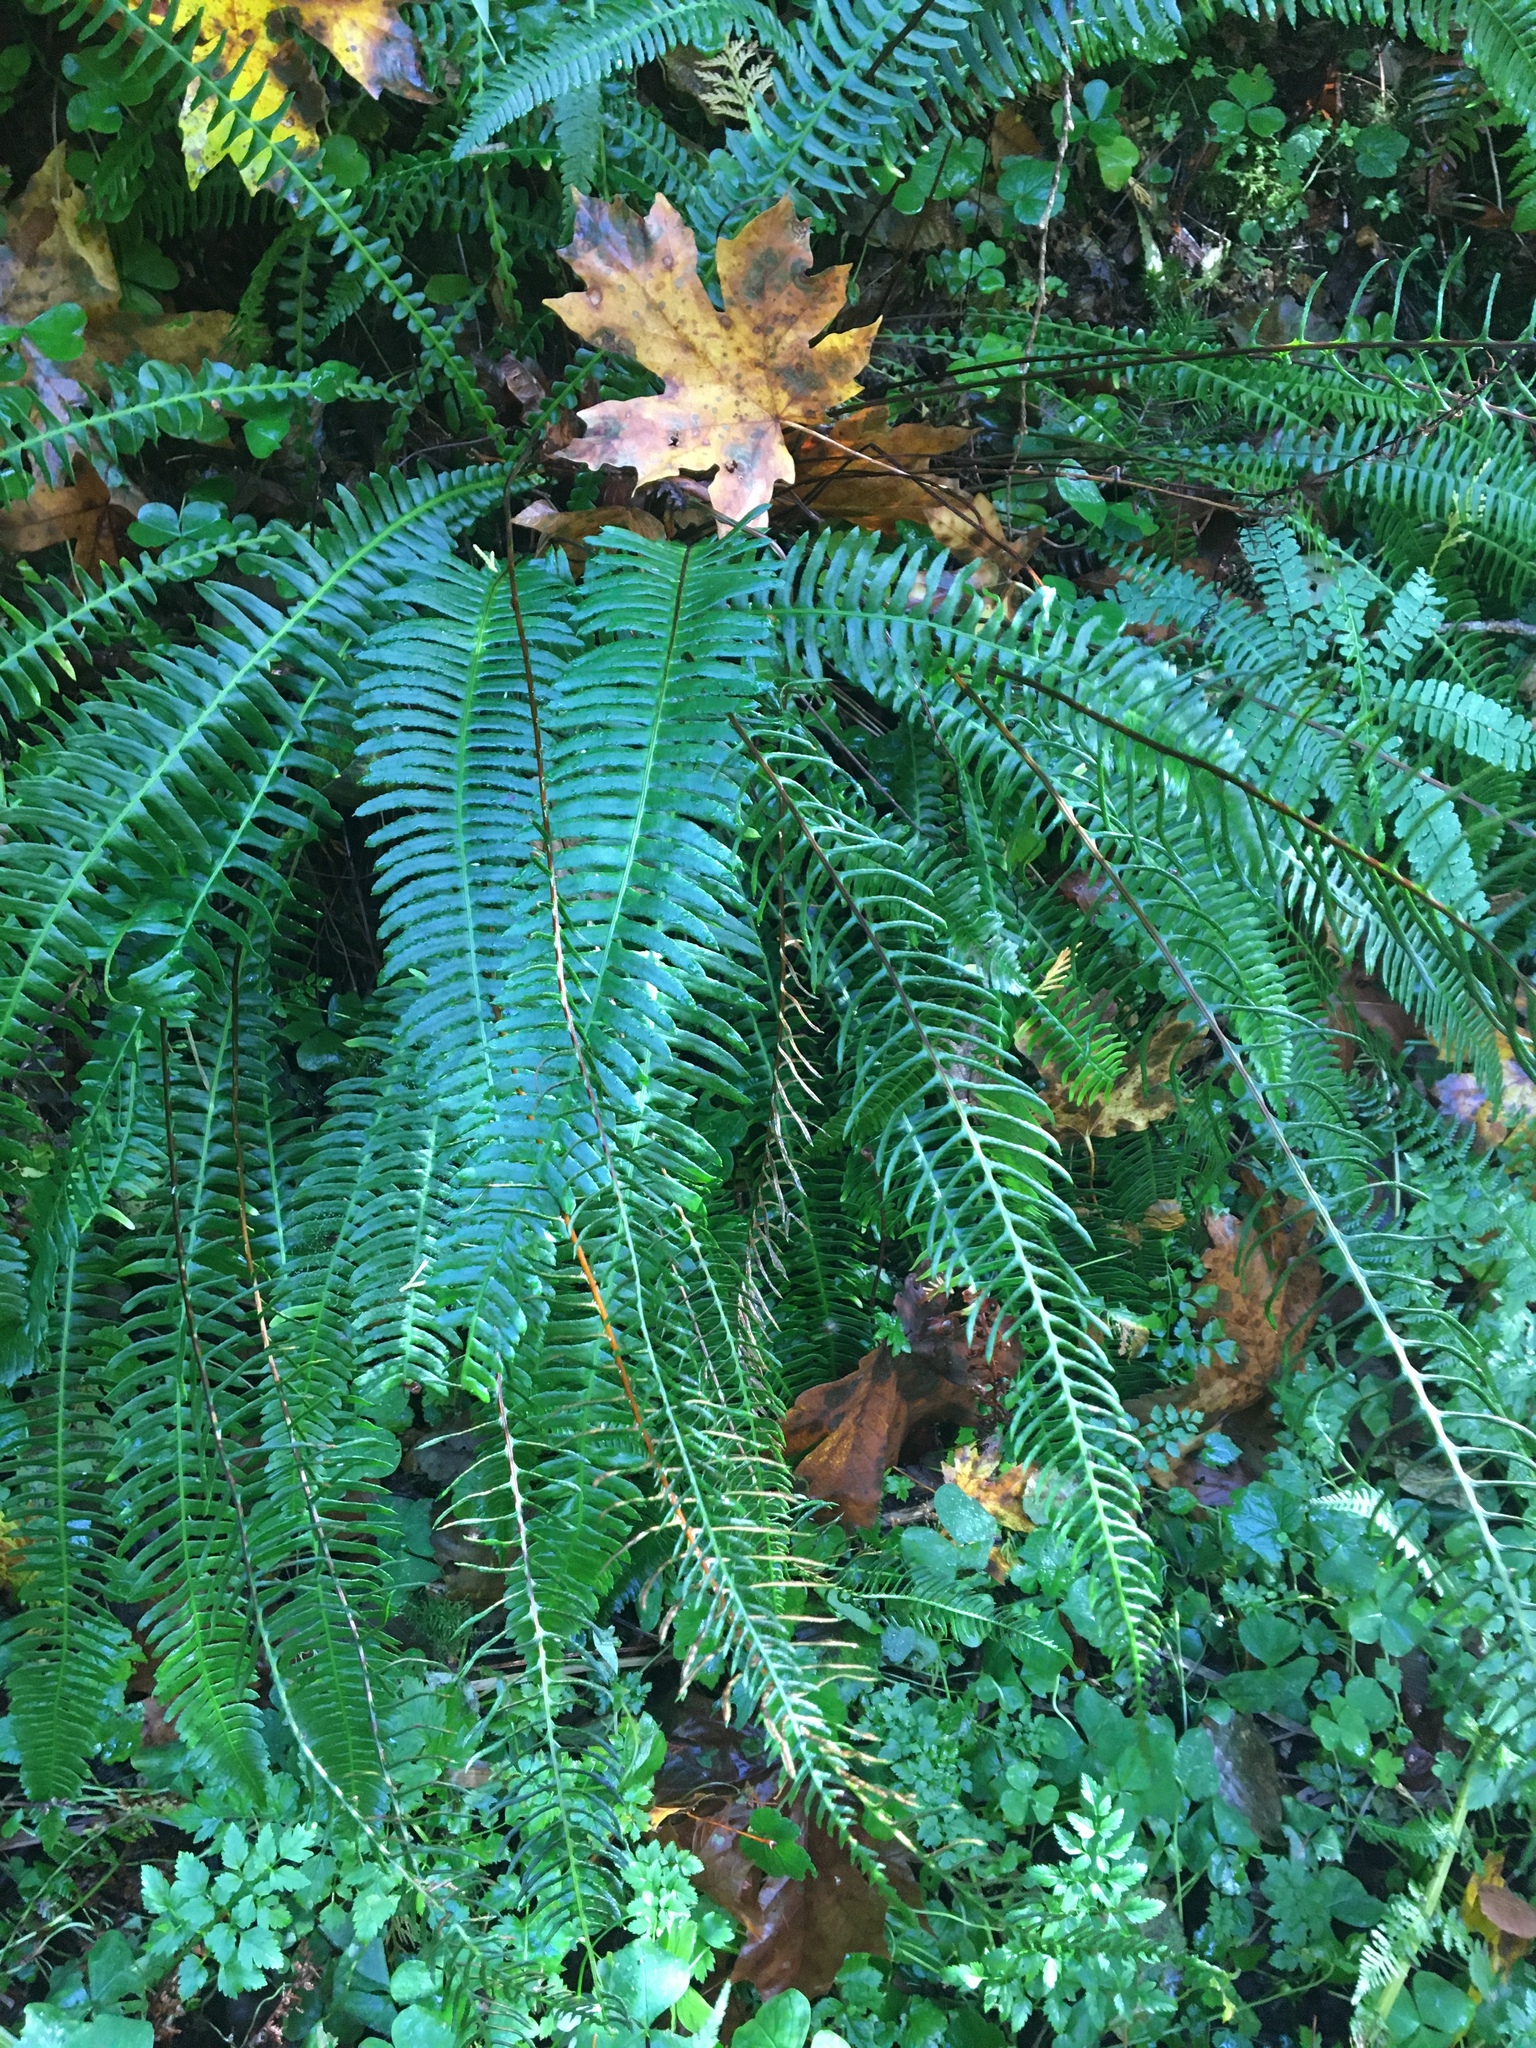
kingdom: Plantae
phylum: Tracheophyta
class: Polypodiopsida
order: Polypodiales
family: Blechnaceae
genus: Struthiopteris
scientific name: Struthiopteris spicant
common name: Deer fern
